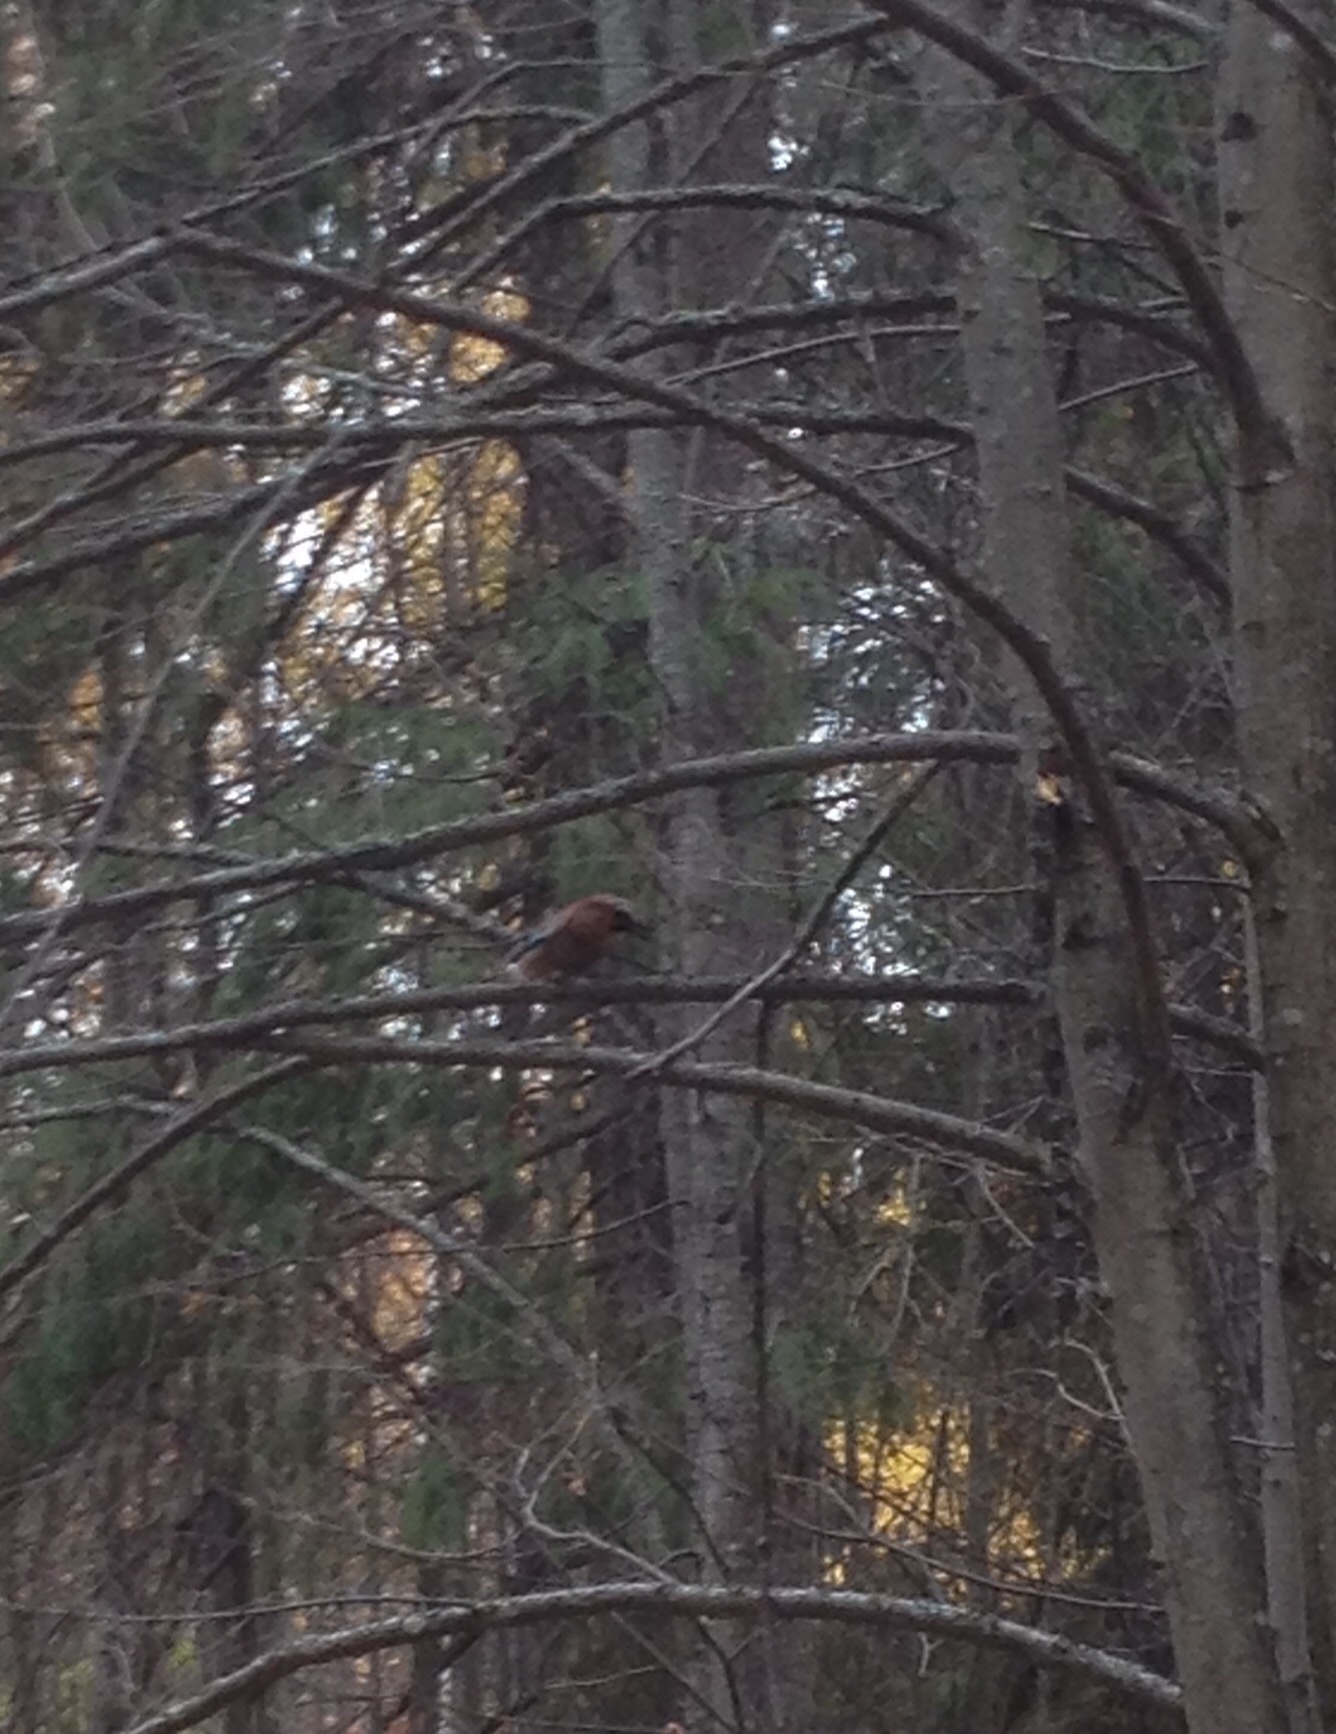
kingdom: Animalia
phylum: Chordata
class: Aves
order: Passeriformes
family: Corvidae
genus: Garrulus
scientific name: Garrulus glandarius
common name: Eurasian jay
